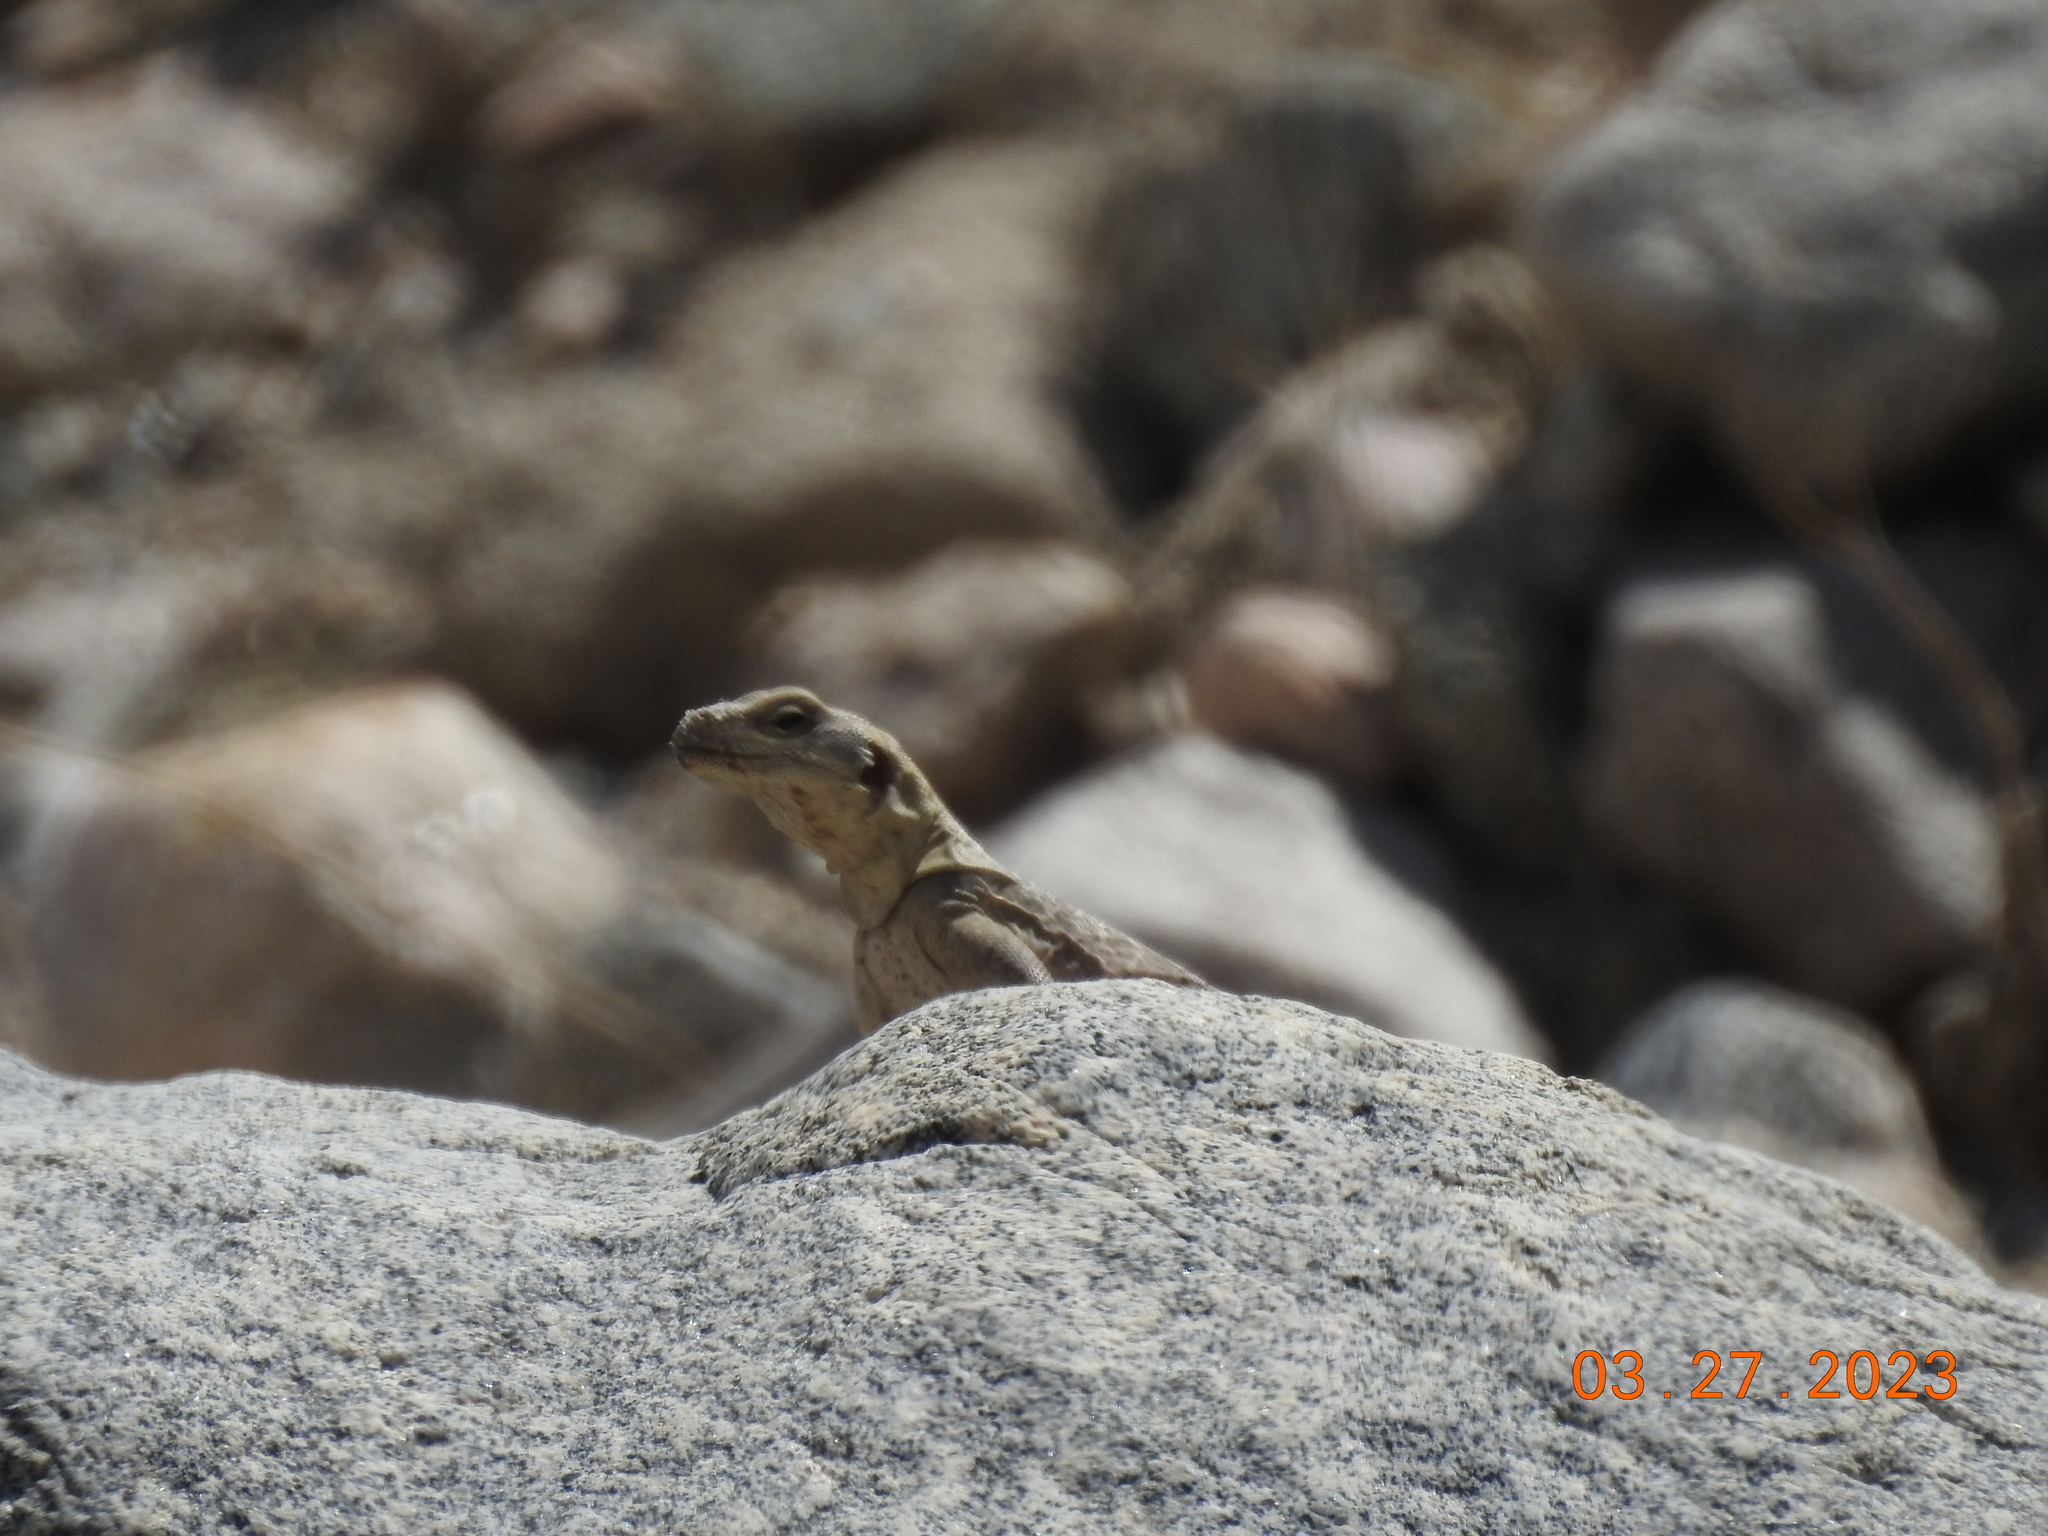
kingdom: Animalia
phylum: Chordata
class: Squamata
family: Iguanidae
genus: Sauromalus
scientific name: Sauromalus ater
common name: Northern chuckwalla
